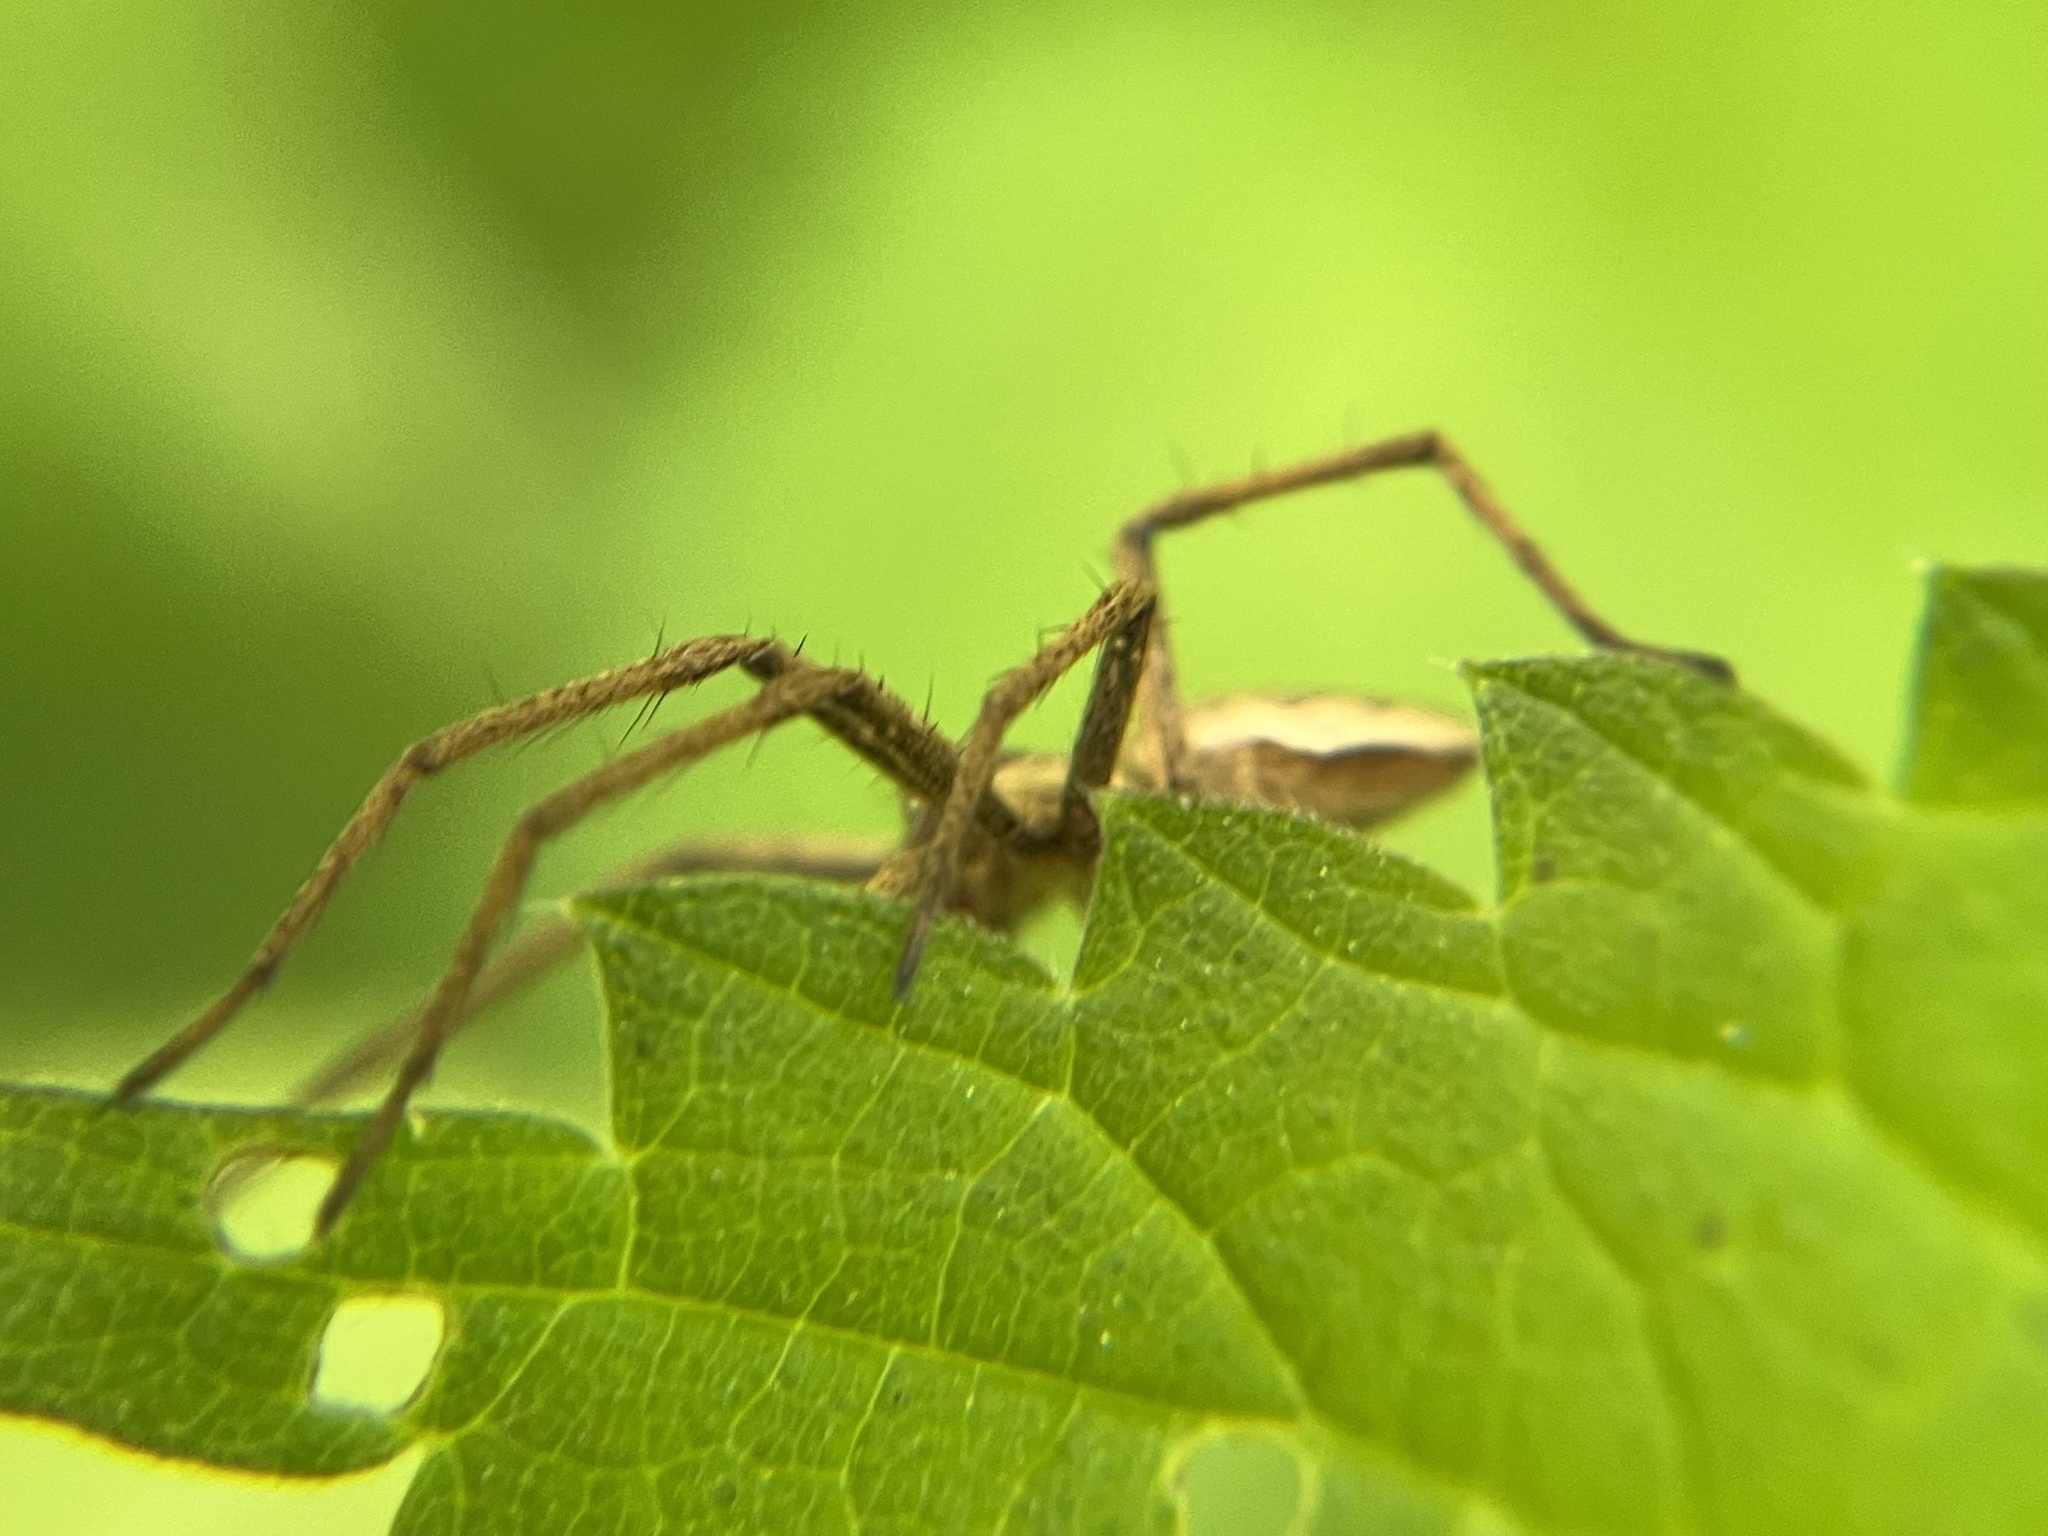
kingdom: Animalia
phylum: Arthropoda
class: Arachnida
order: Araneae
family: Pisauridae
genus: Pisaura
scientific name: Pisaura mirabilis
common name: Tent spider
